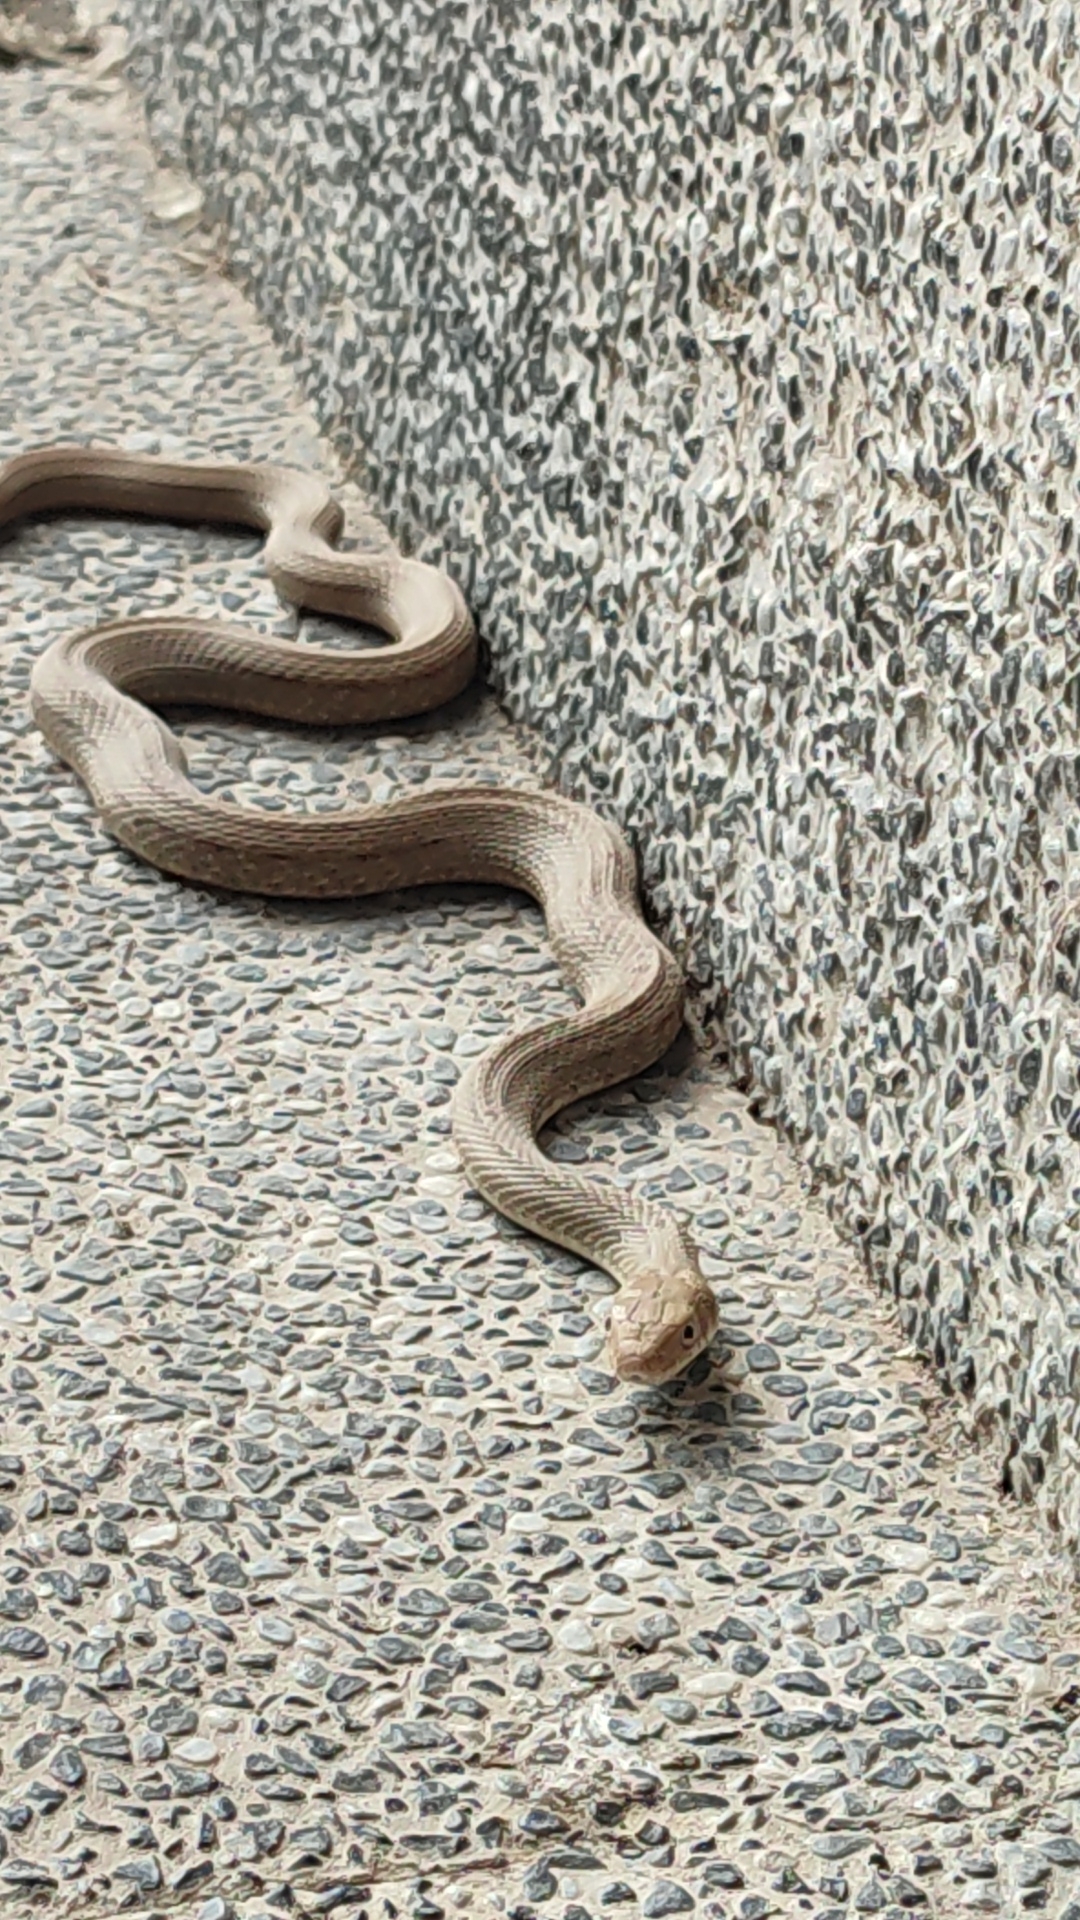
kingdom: Animalia
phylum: Chordata
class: Squamata
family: Colubridae
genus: Elaphe
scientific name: Elaphe carinata
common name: Taiwan stink snake
